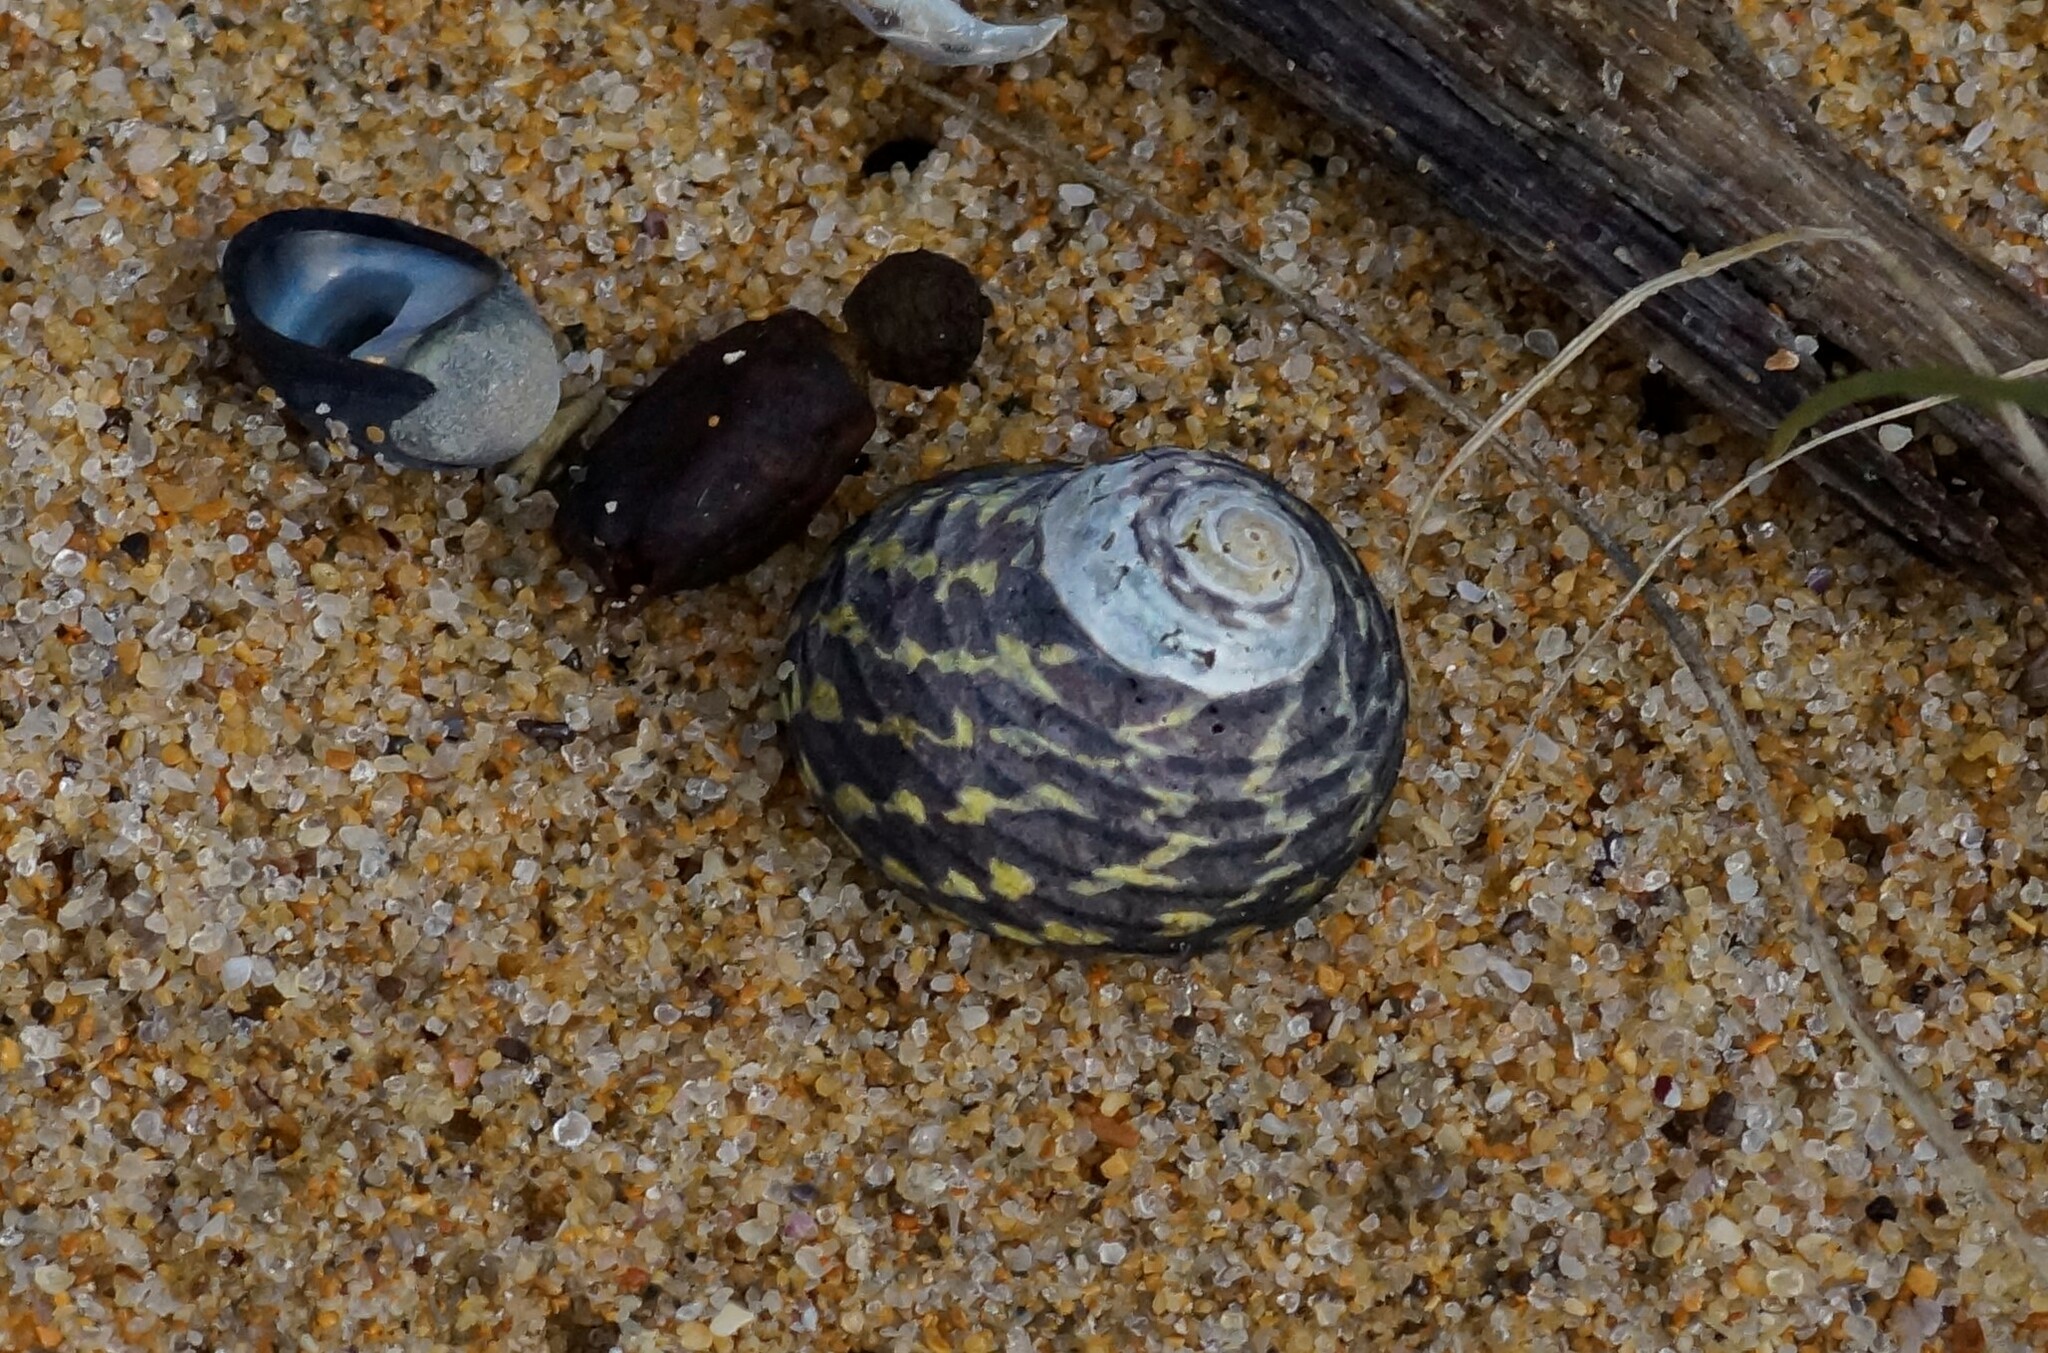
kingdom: Animalia
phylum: Mollusca
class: Gastropoda
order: Trochida
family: Trochidae
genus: Diloma
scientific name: Diloma concameratum
